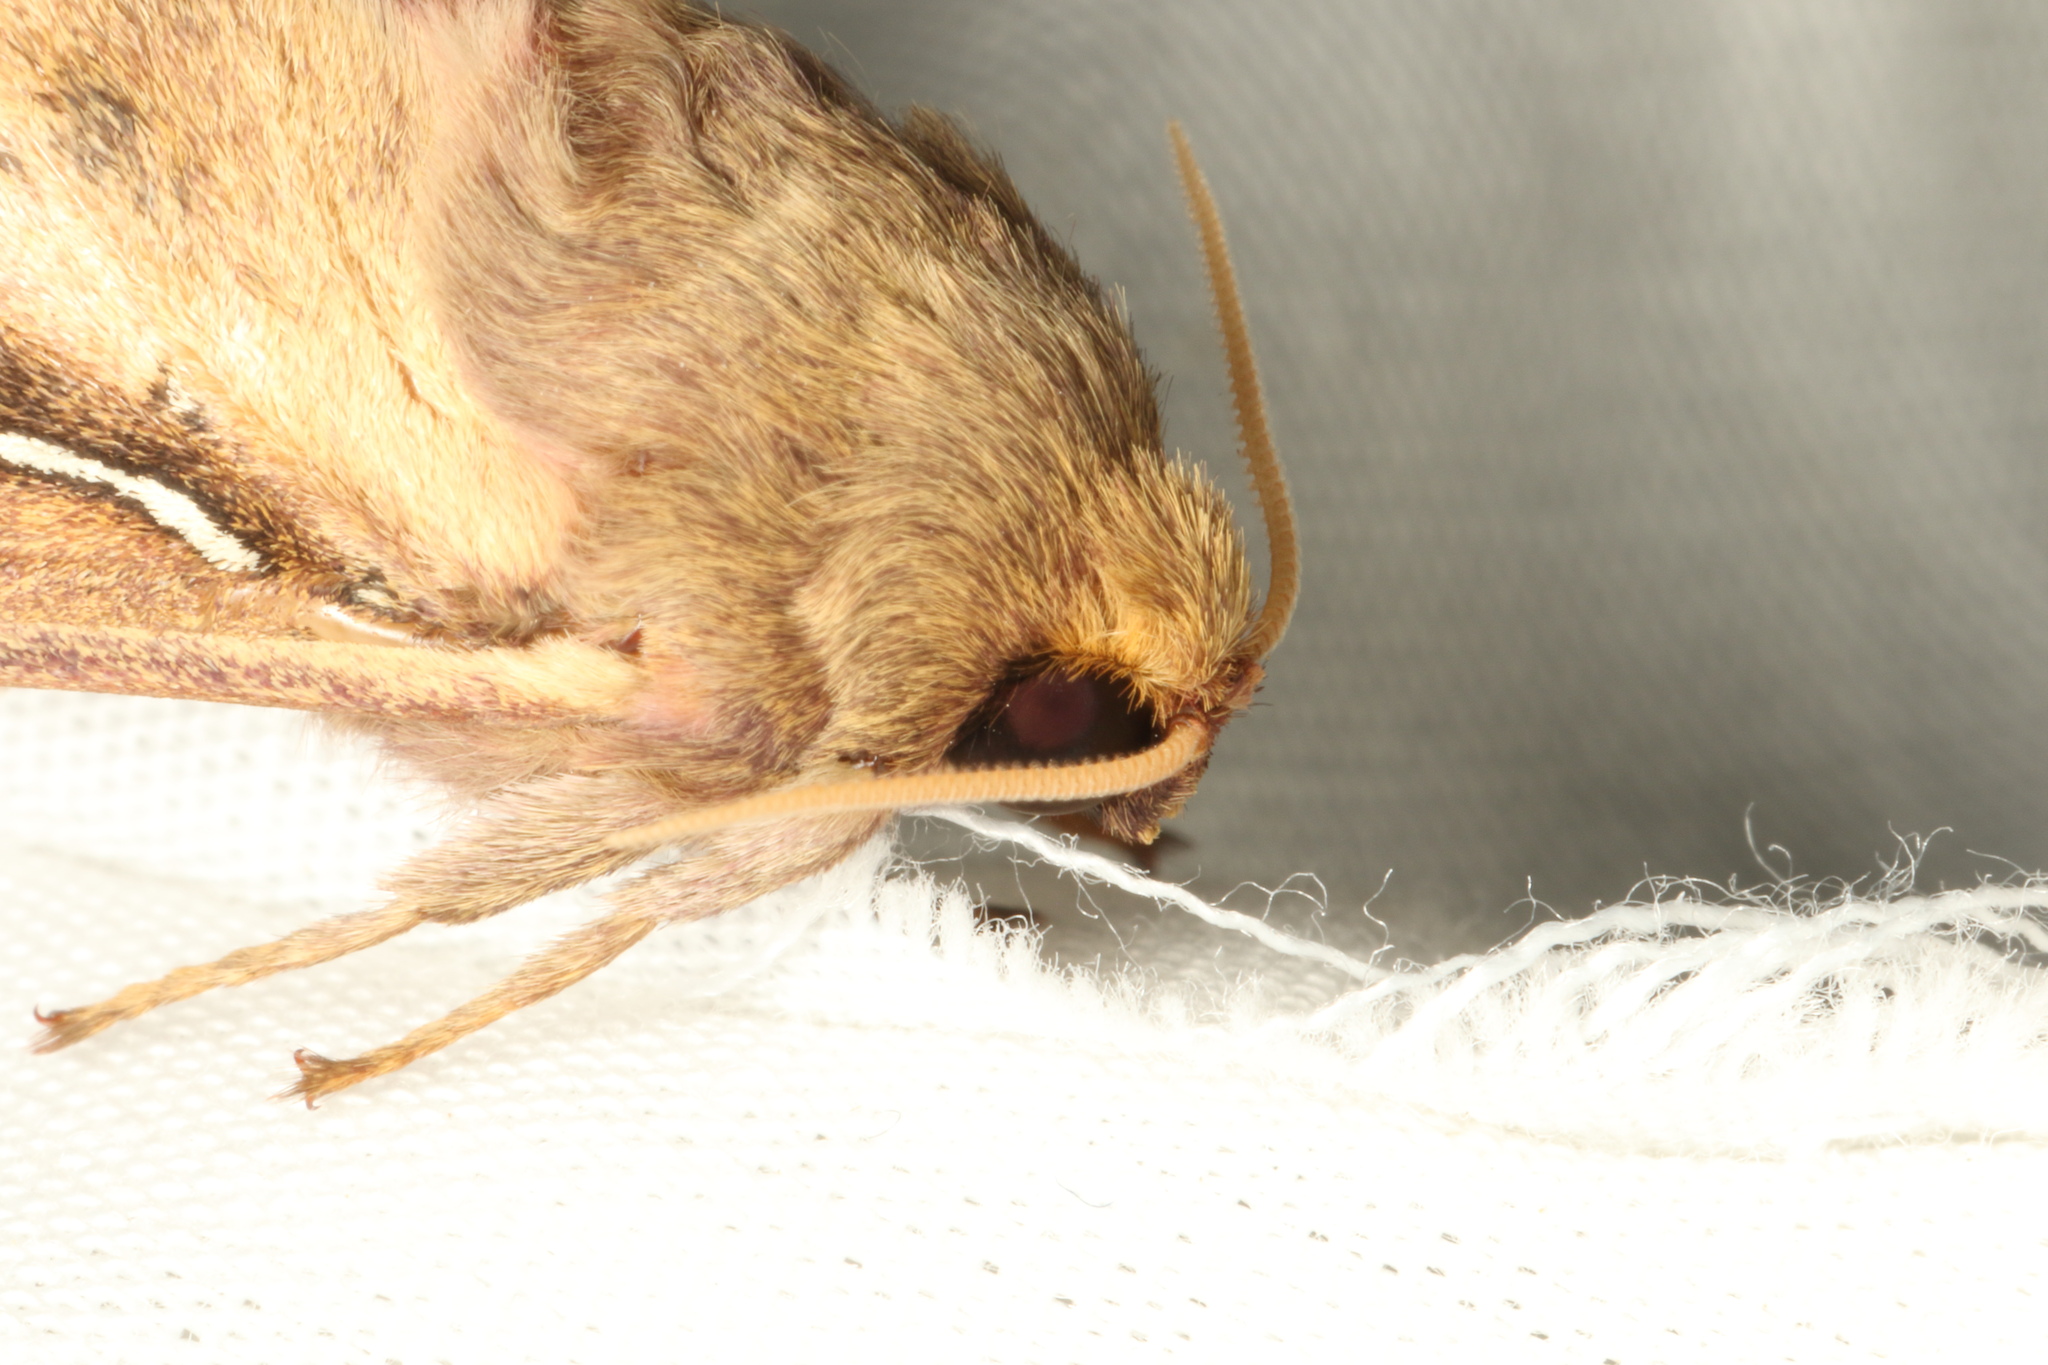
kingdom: Animalia
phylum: Arthropoda
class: Insecta
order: Lepidoptera
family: Hepialidae
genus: Wiseana
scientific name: Wiseana umbraculatus
